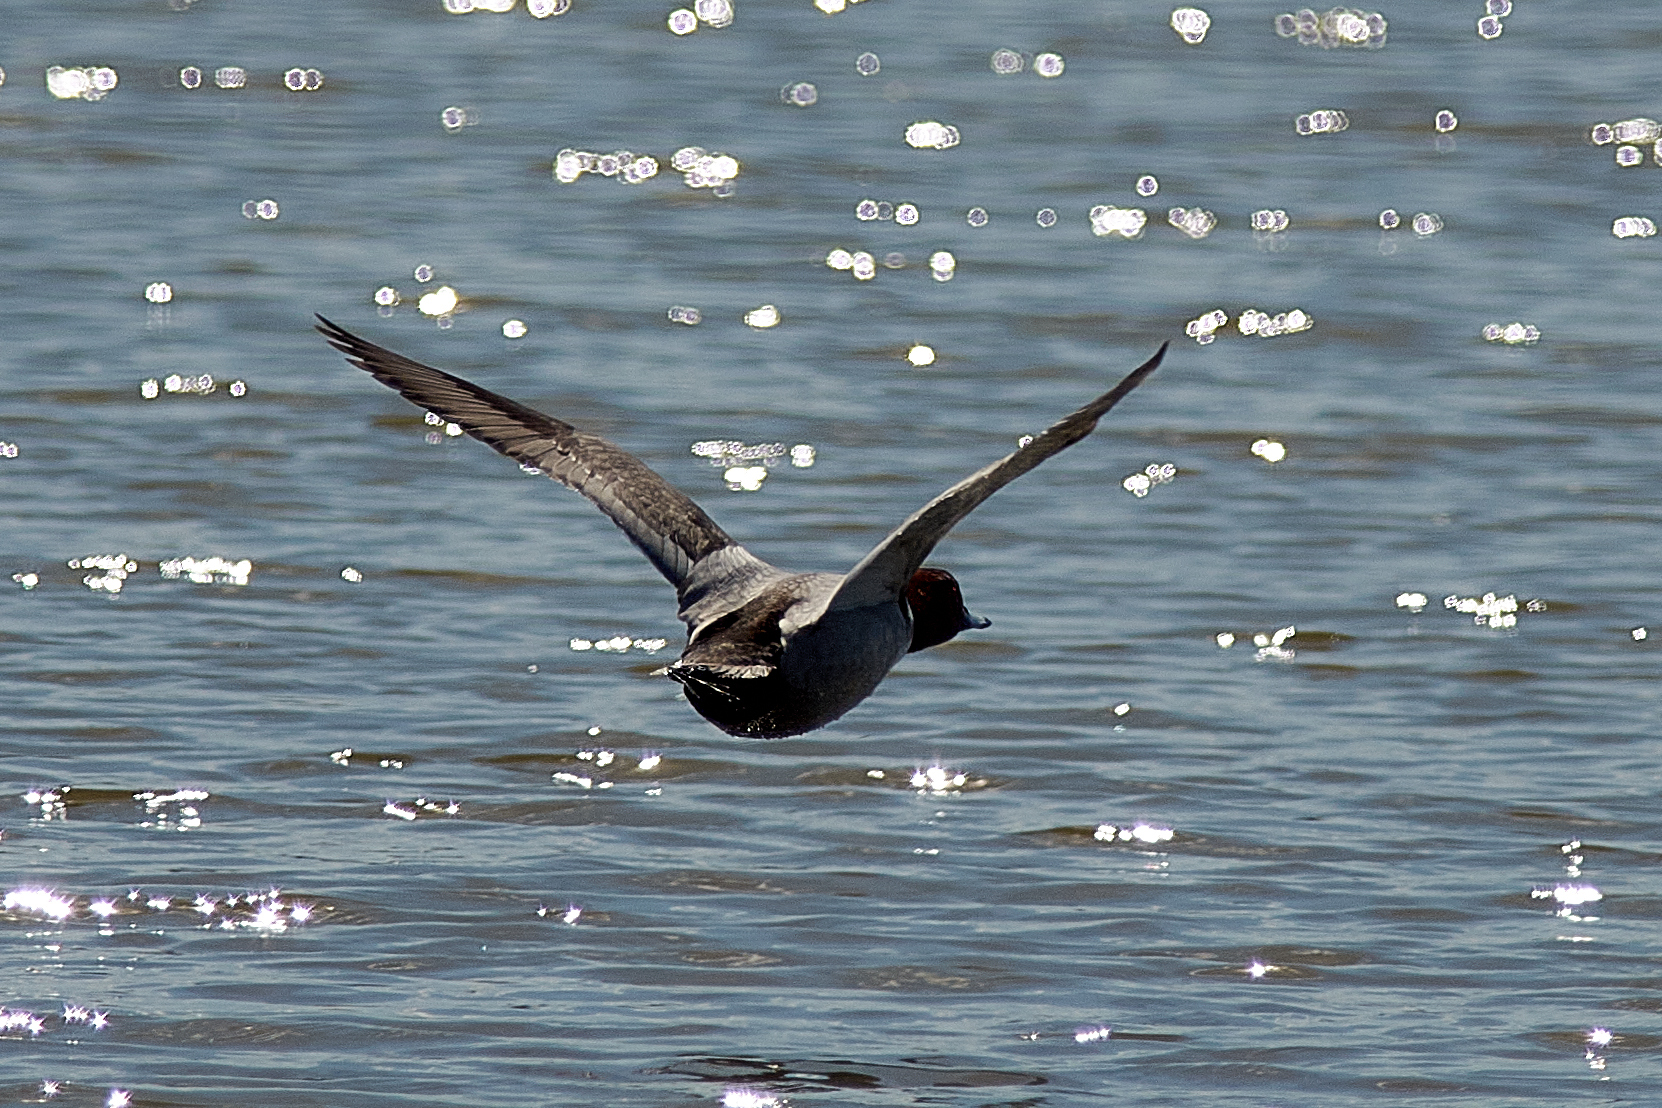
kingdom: Animalia
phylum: Chordata
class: Aves
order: Anseriformes
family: Anatidae
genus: Aythya
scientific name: Aythya ferina
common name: Common pochard
